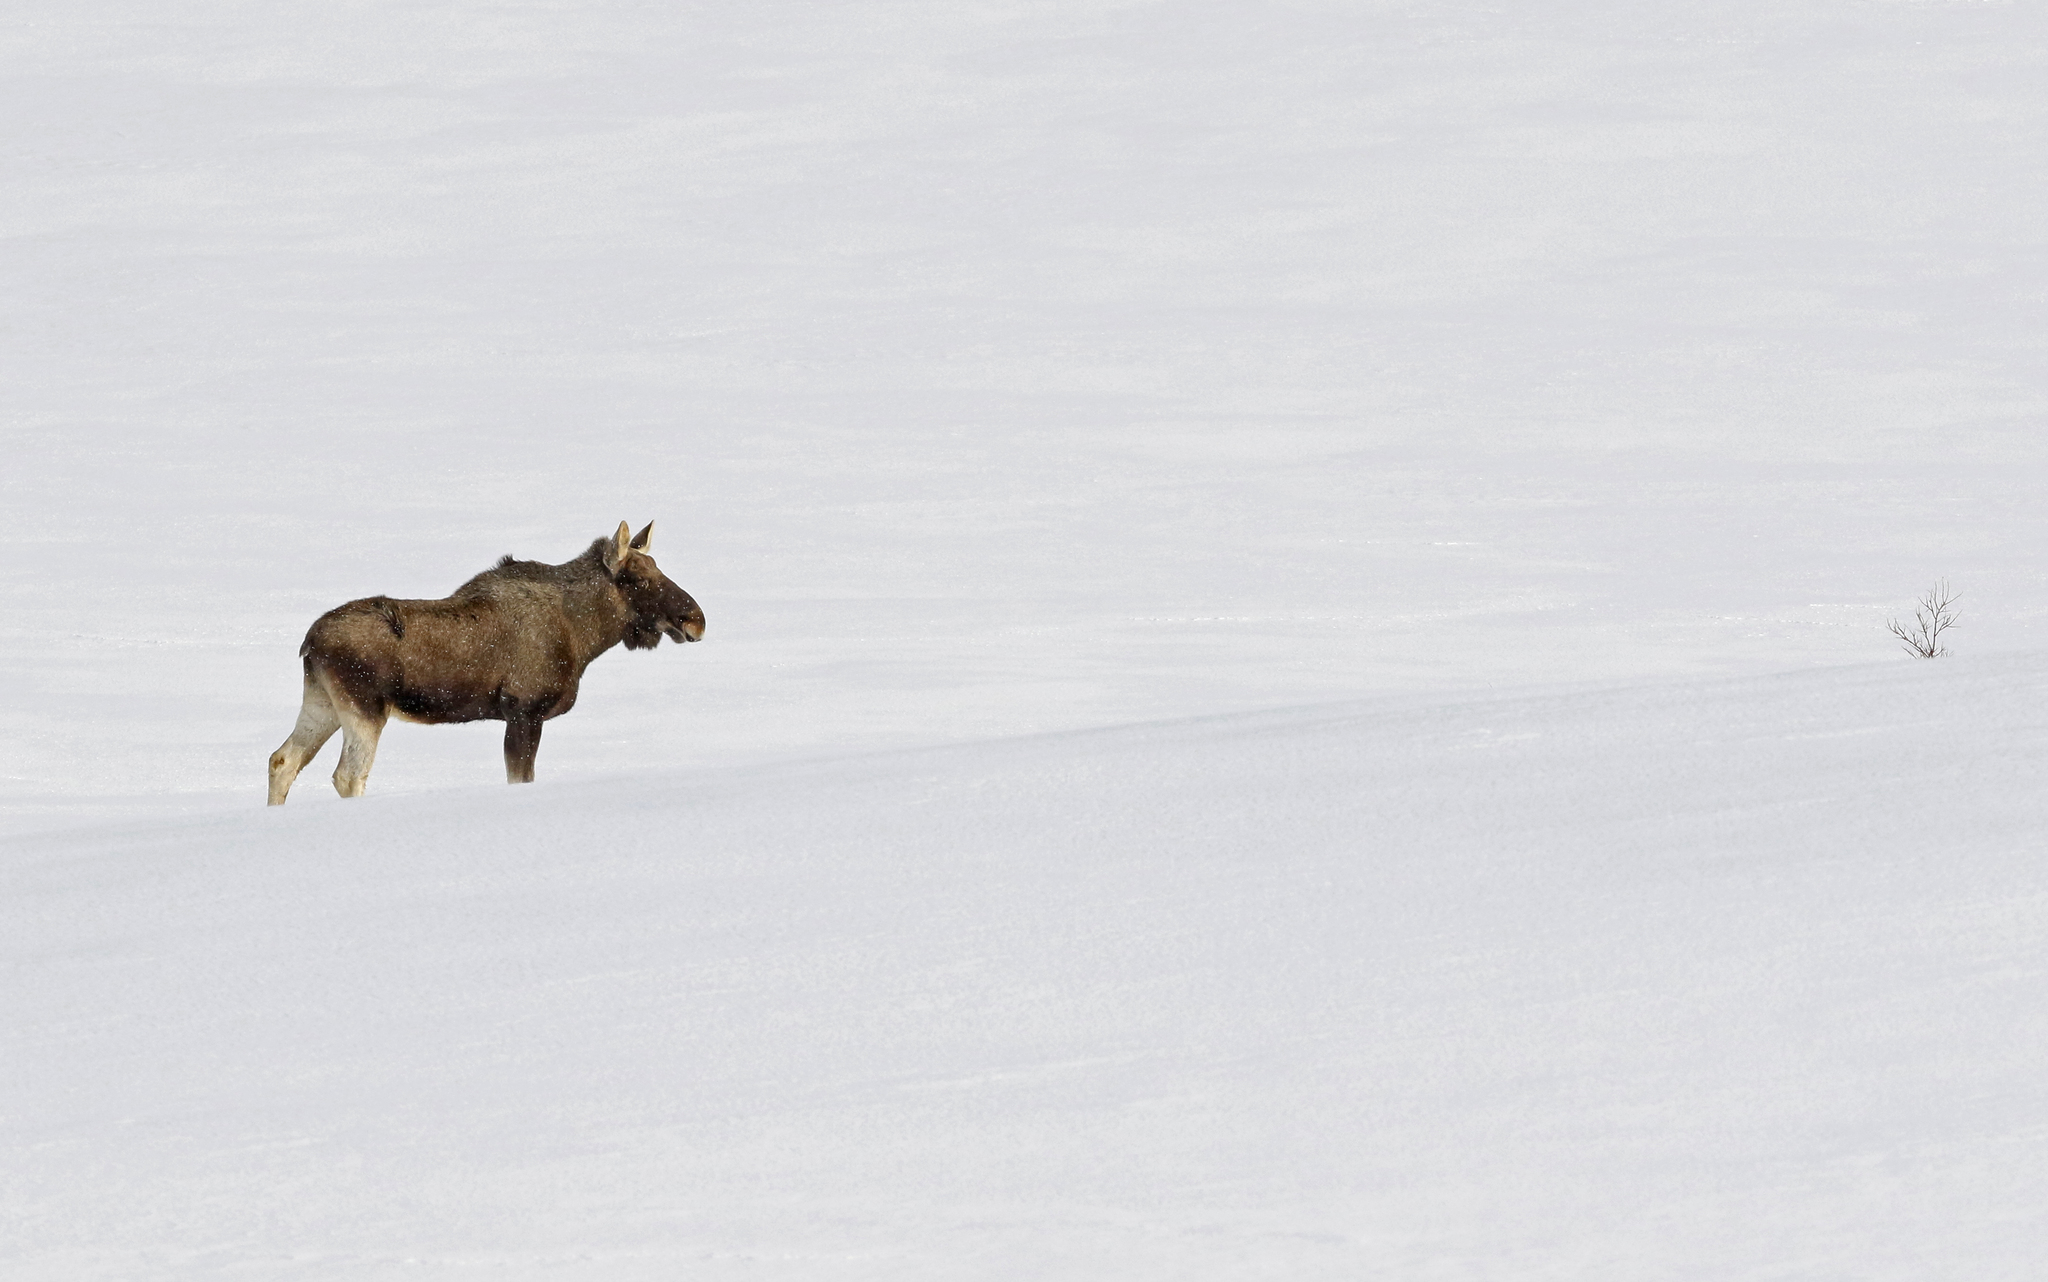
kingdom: Animalia
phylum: Chordata
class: Mammalia
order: Artiodactyla
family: Cervidae
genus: Alces
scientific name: Alces alces
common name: Moose
